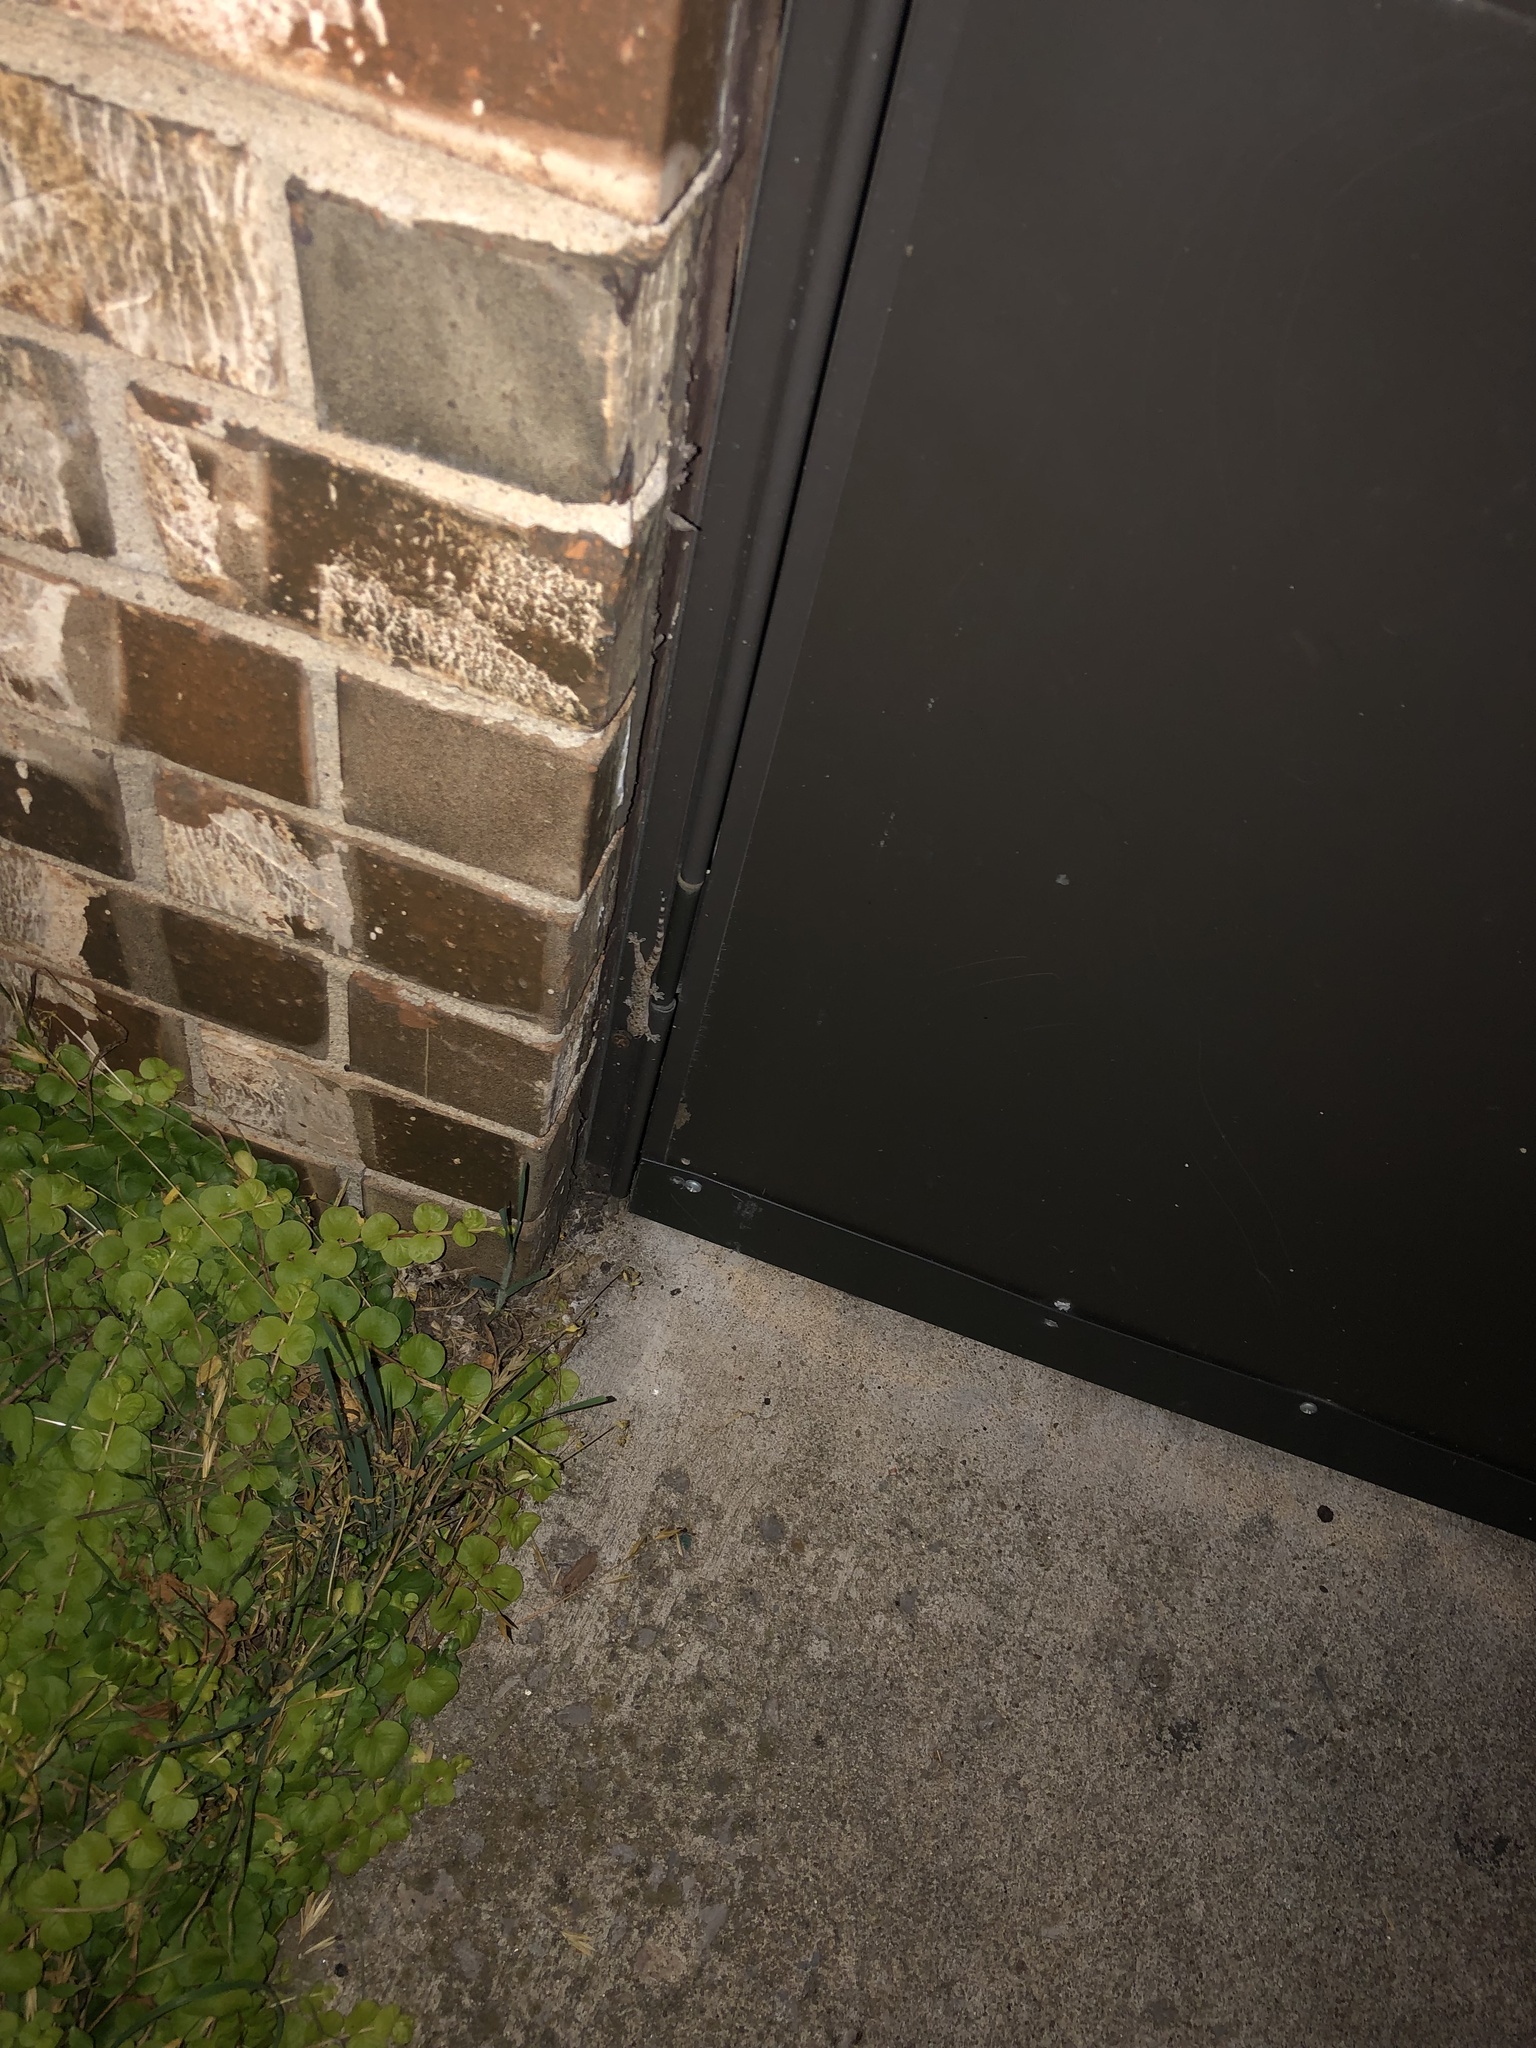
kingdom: Animalia
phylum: Chordata
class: Squamata
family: Gekkonidae
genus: Hemidactylus
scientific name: Hemidactylus turcicus
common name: Turkish gecko
